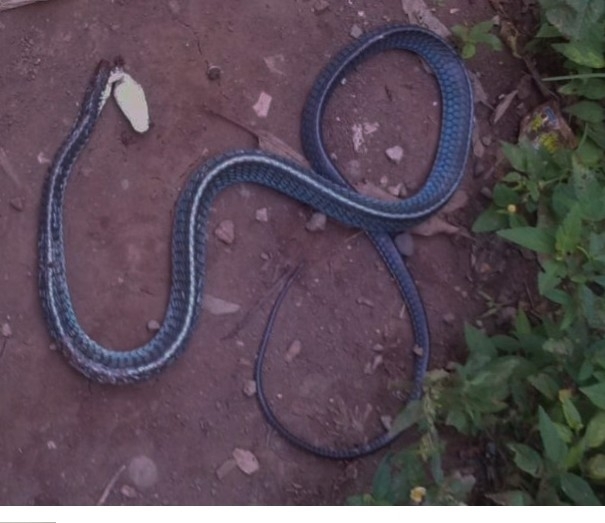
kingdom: Animalia
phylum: Chordata
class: Squamata
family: Colubridae
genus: Chironius
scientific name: Chironius flavopictus
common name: Sipo
